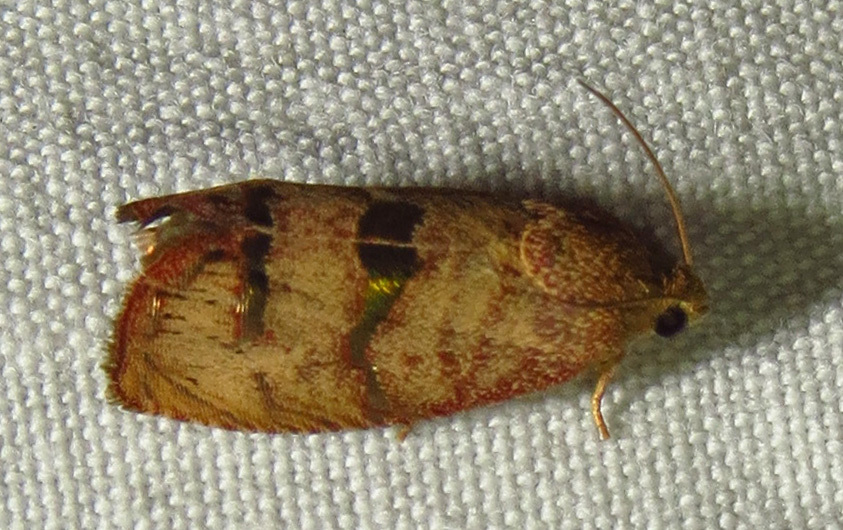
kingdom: Animalia
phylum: Arthropoda
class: Insecta
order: Lepidoptera
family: Tortricidae
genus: Cydia
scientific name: Cydia latiferreana
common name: Filbertworm moth
